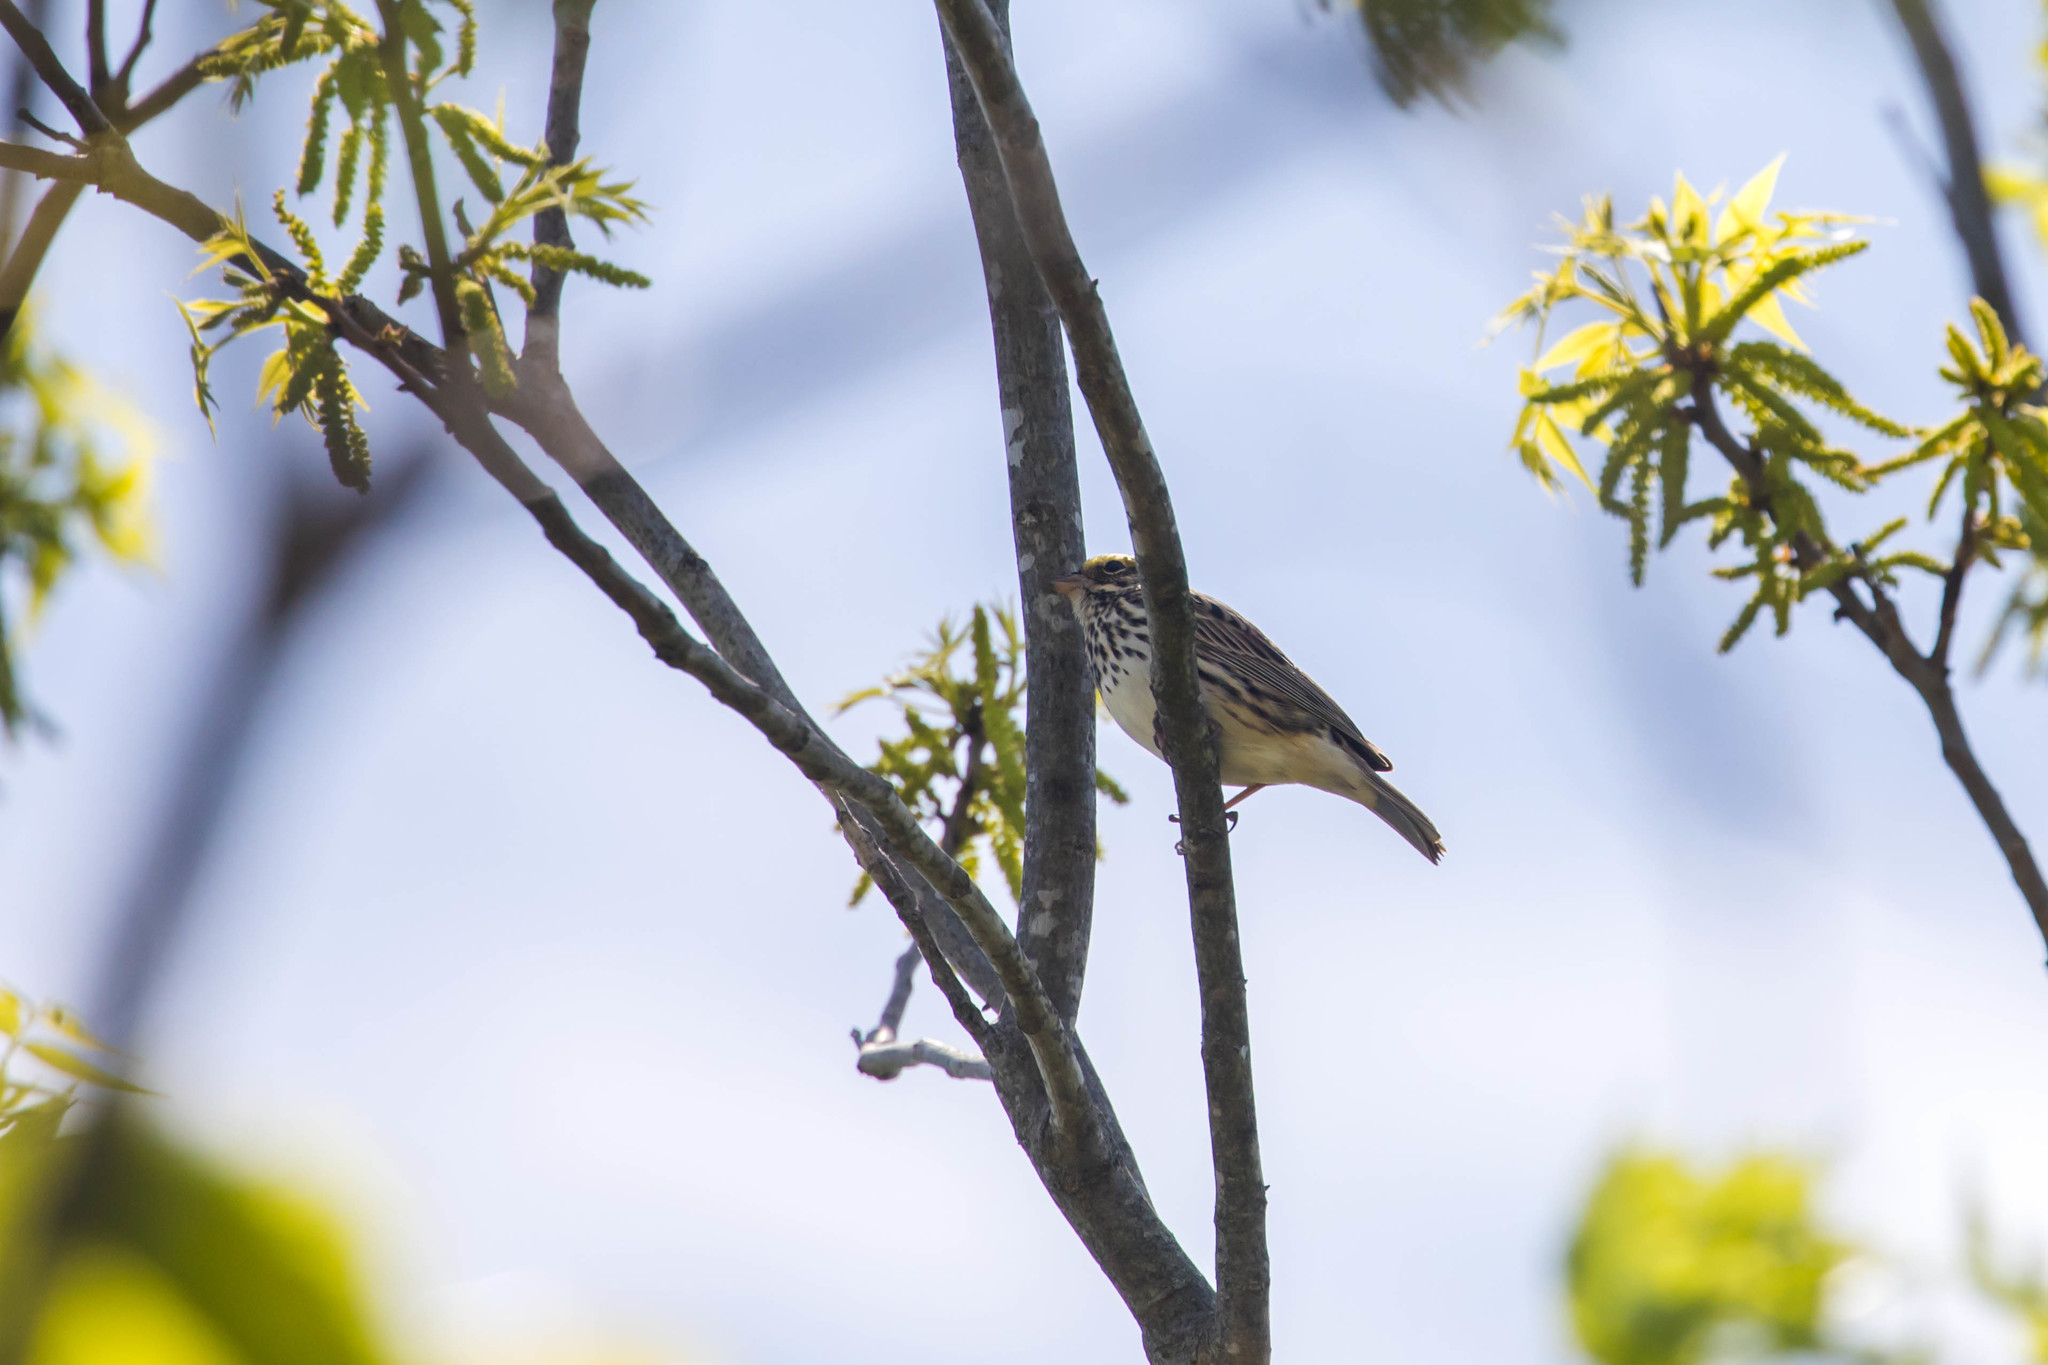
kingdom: Animalia
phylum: Chordata
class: Aves
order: Passeriformes
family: Passerellidae
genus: Passerculus
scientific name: Passerculus sandwichensis
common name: Savannah sparrow
